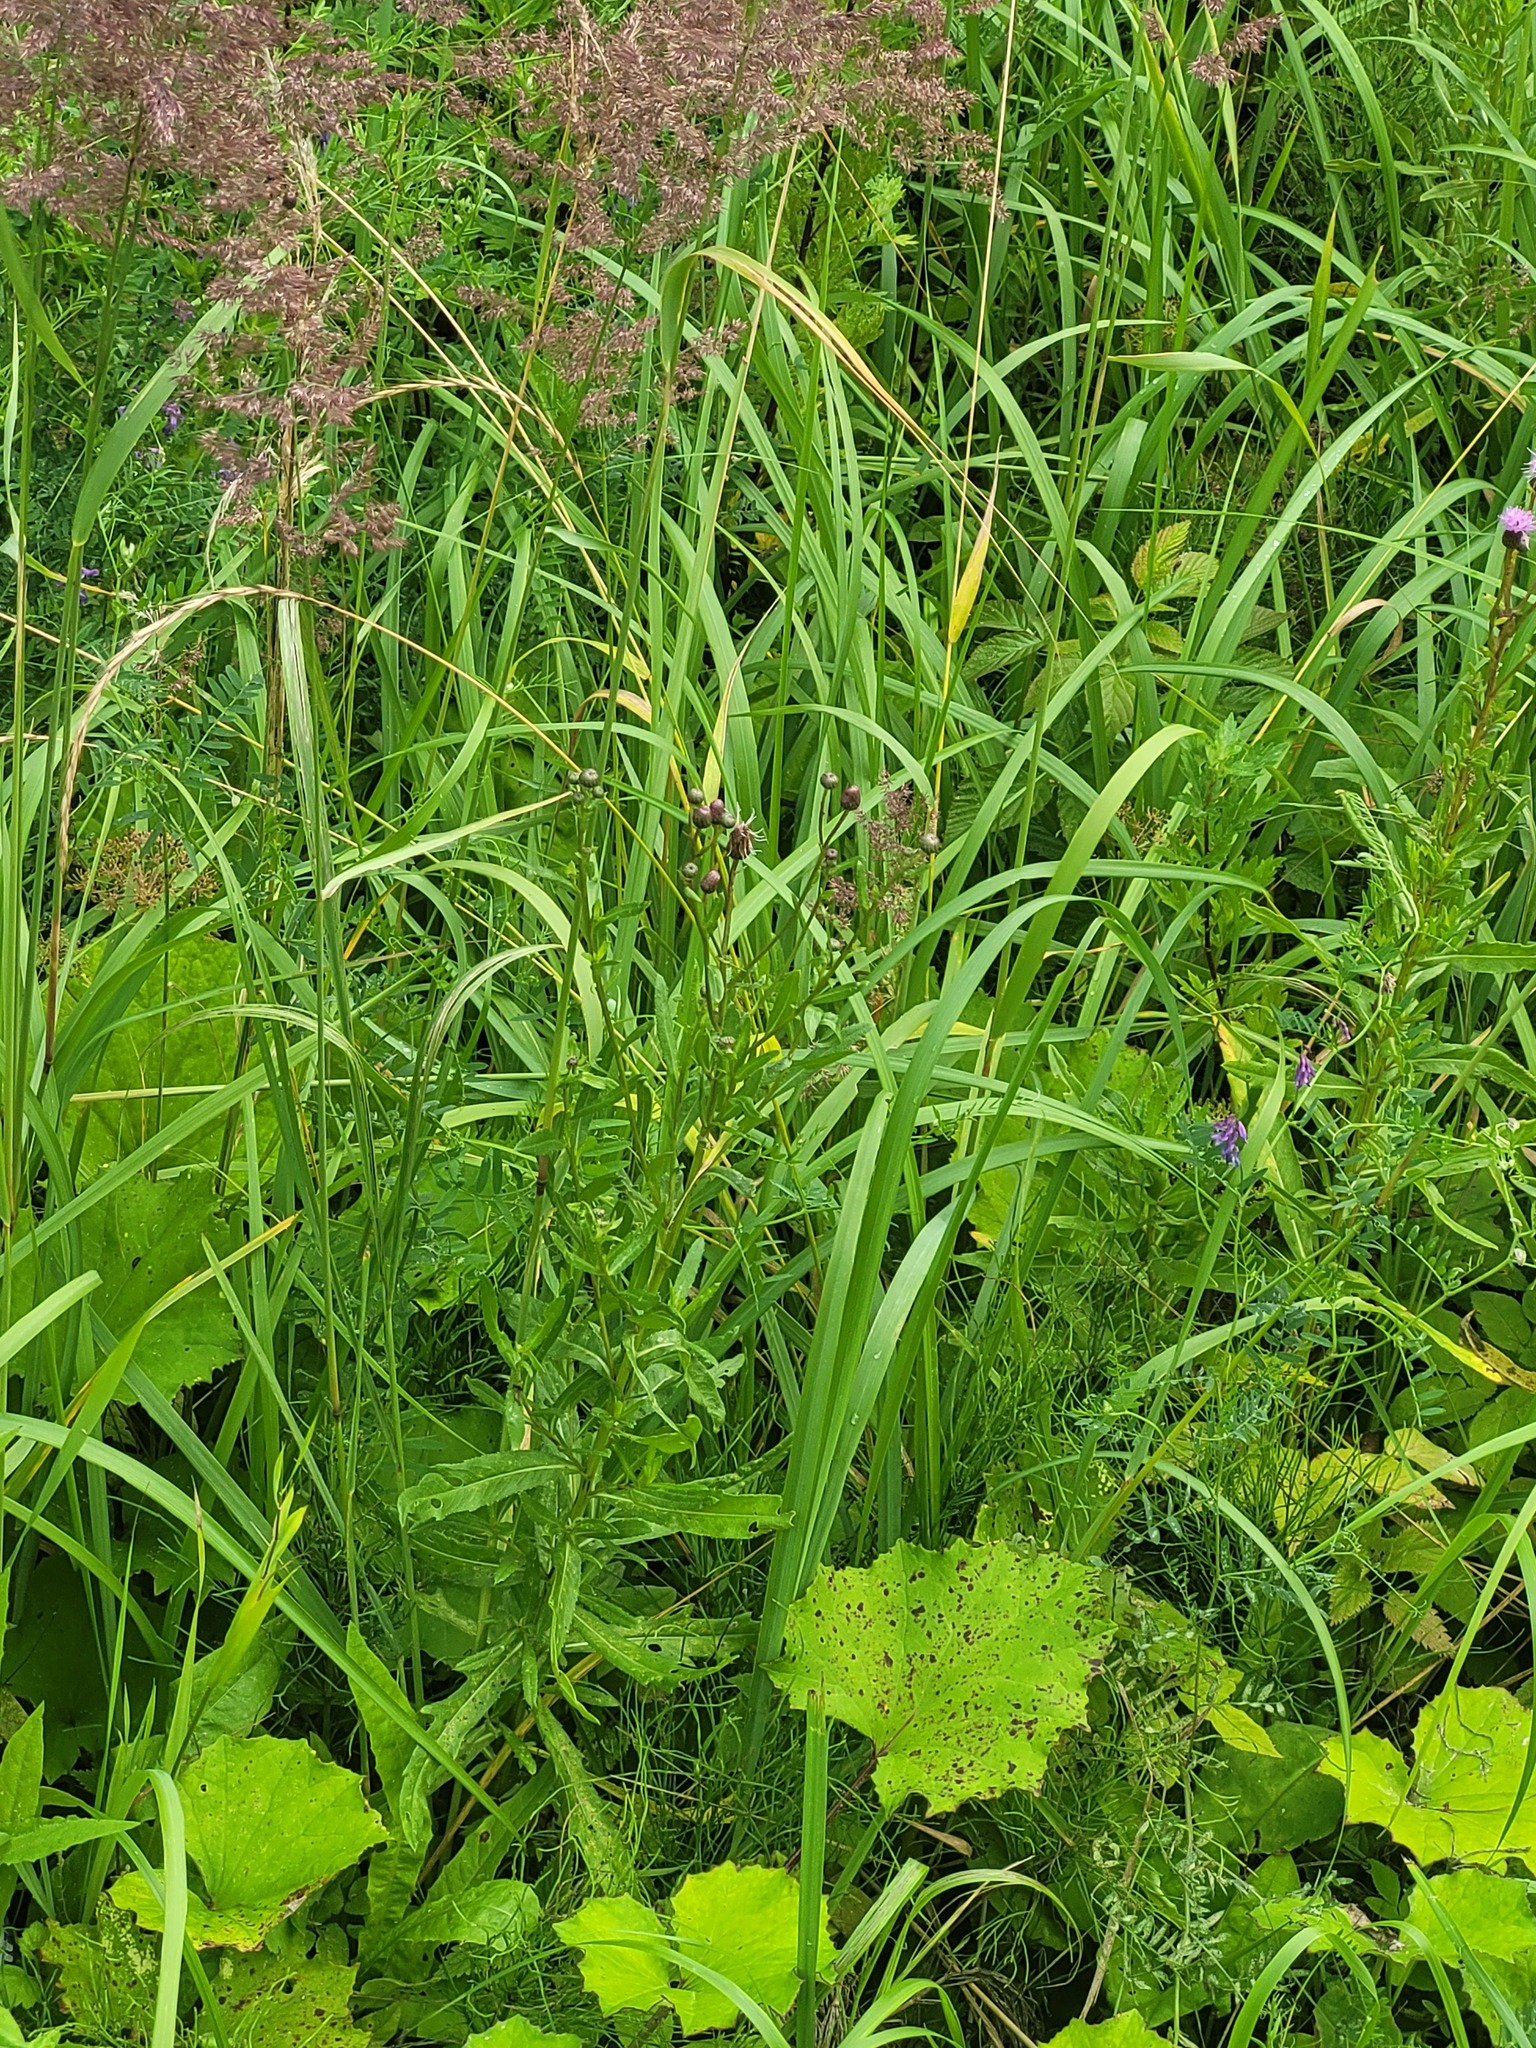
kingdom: Plantae
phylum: Tracheophyta
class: Magnoliopsida
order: Asterales
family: Asteraceae
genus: Cirsium
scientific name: Cirsium arvense
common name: Creeping thistle
